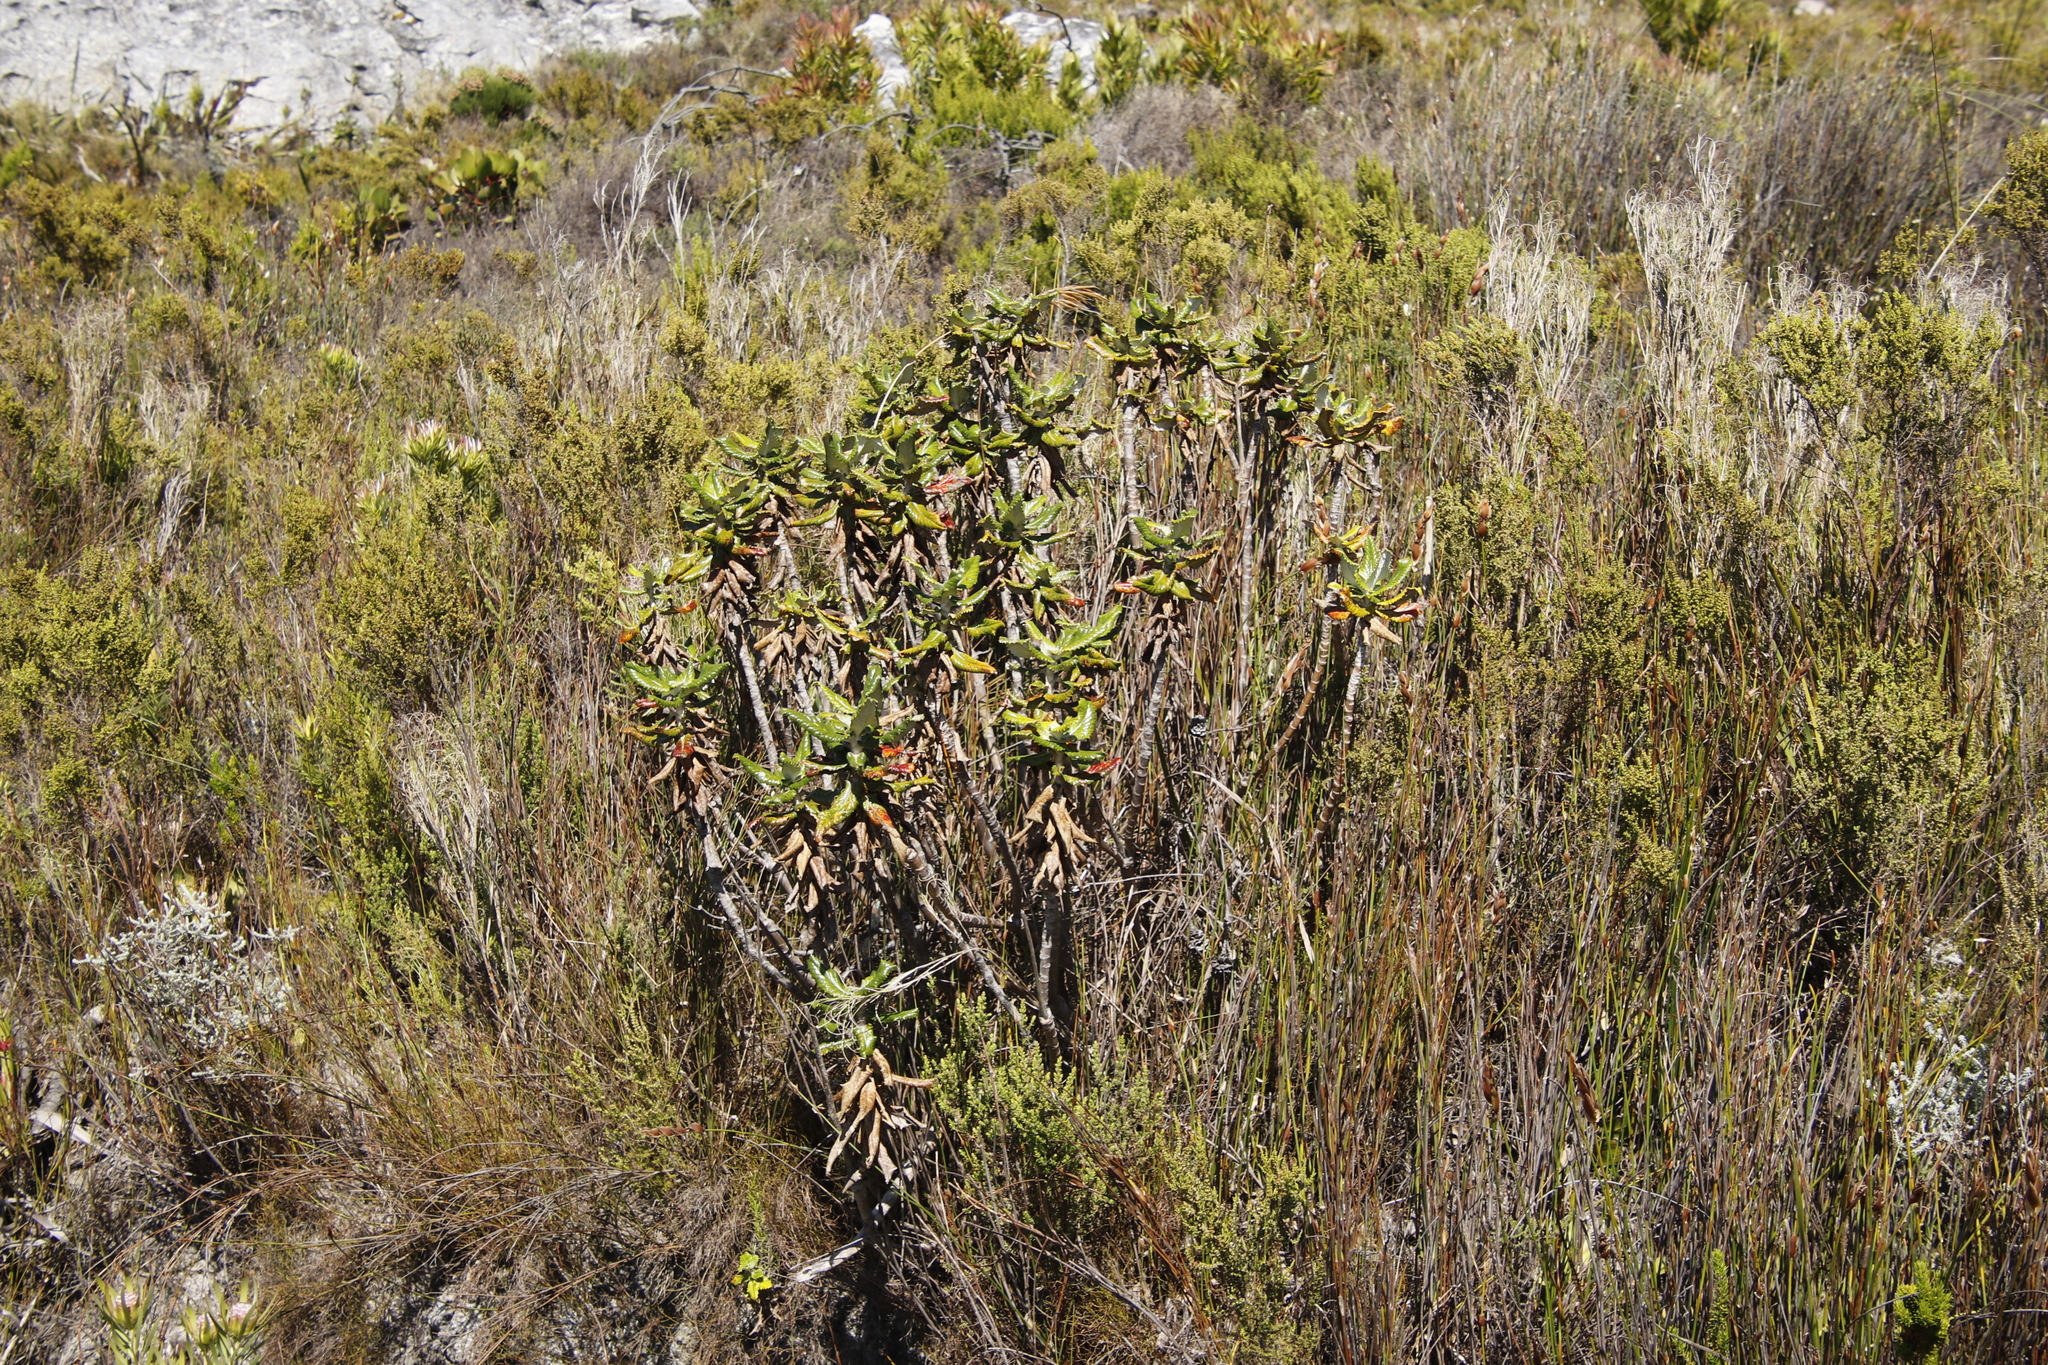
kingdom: Plantae
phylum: Tracheophyta
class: Magnoliopsida
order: Apiales
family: Apiaceae
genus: Hermas
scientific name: Hermas villosa
